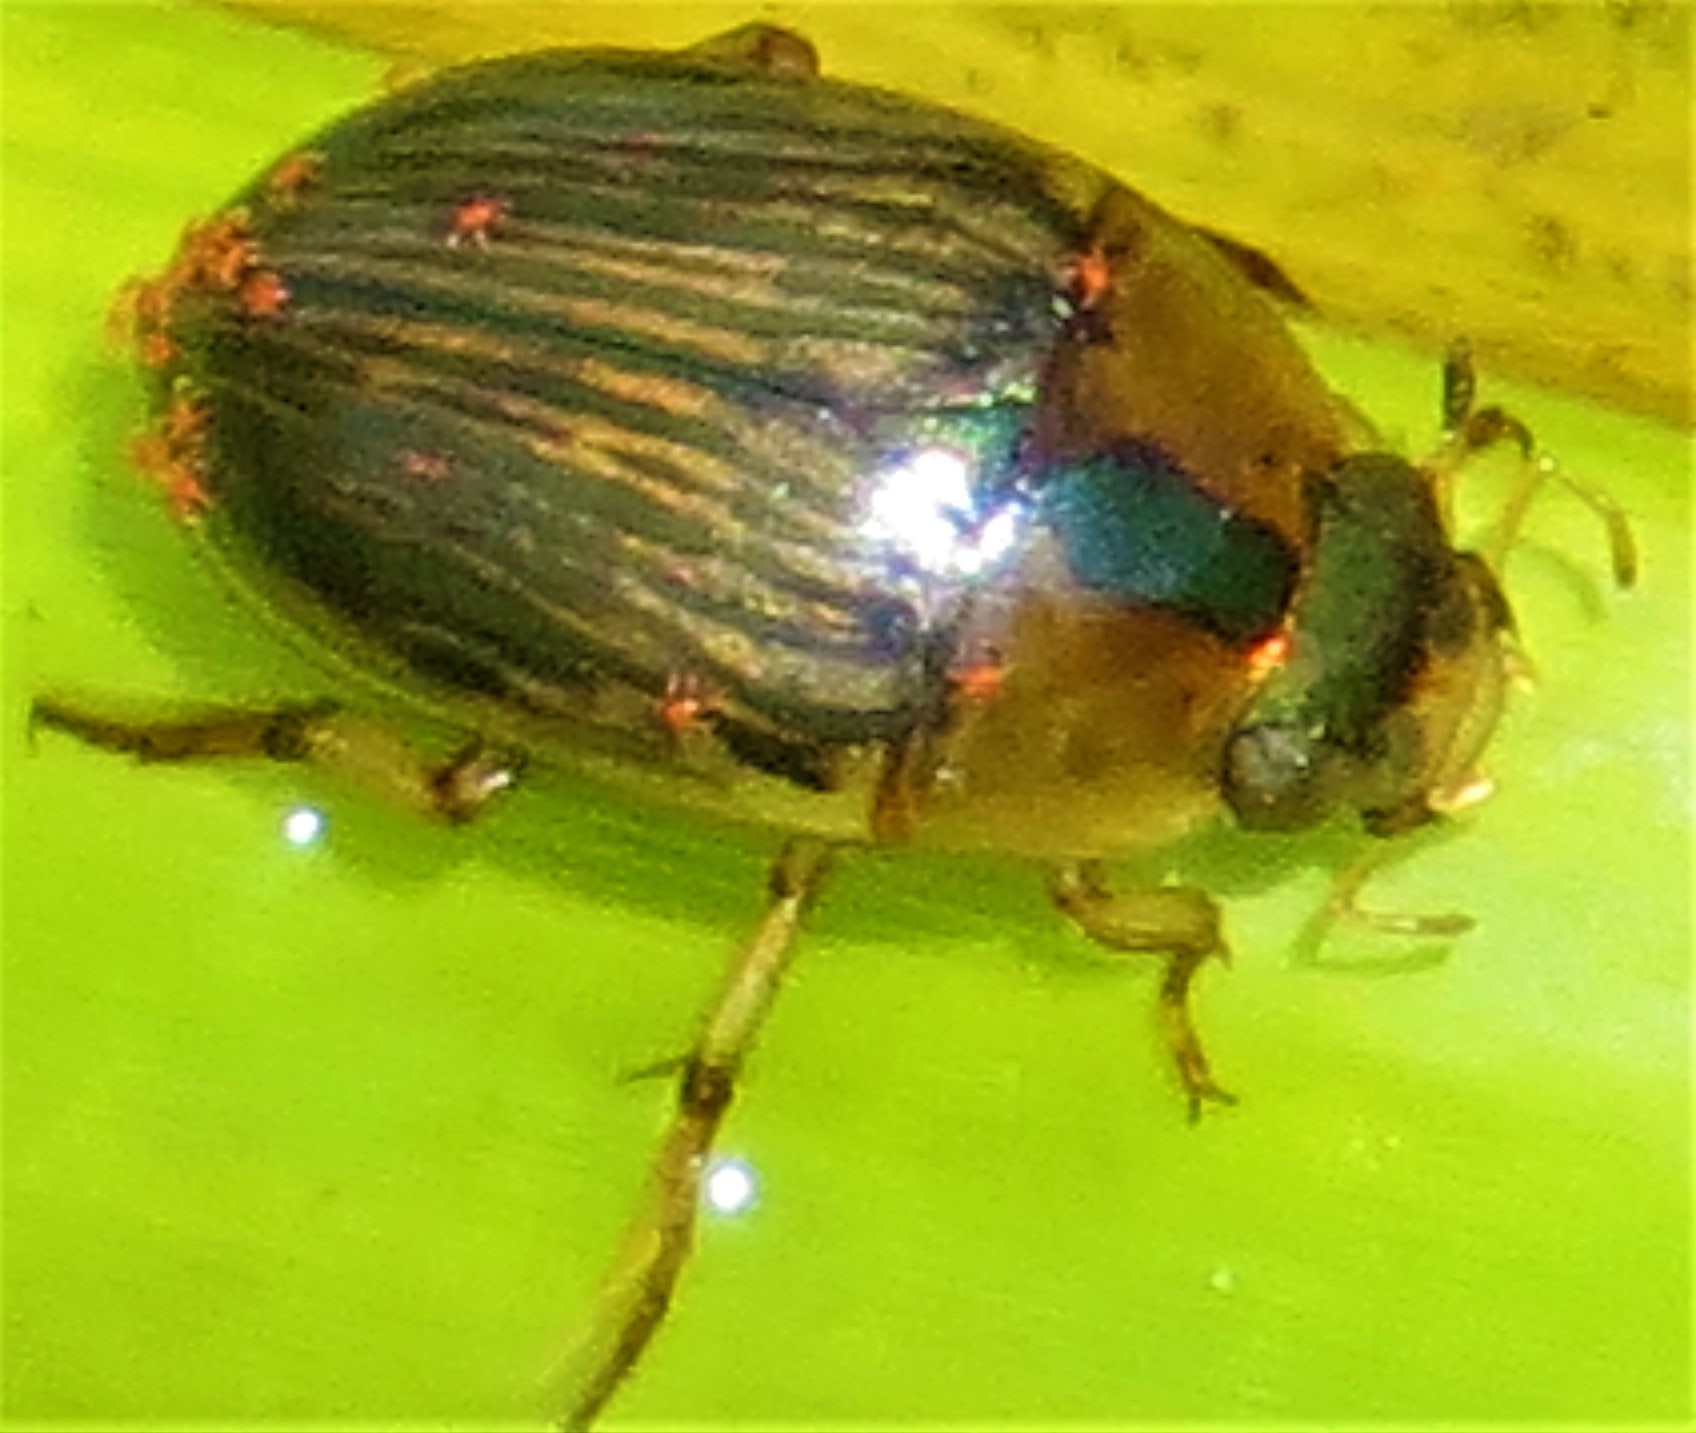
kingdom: Animalia
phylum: Arthropoda
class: Insecta
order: Coleoptera
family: Hydrophilidae
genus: Tropisternus
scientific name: Tropisternus collaris
